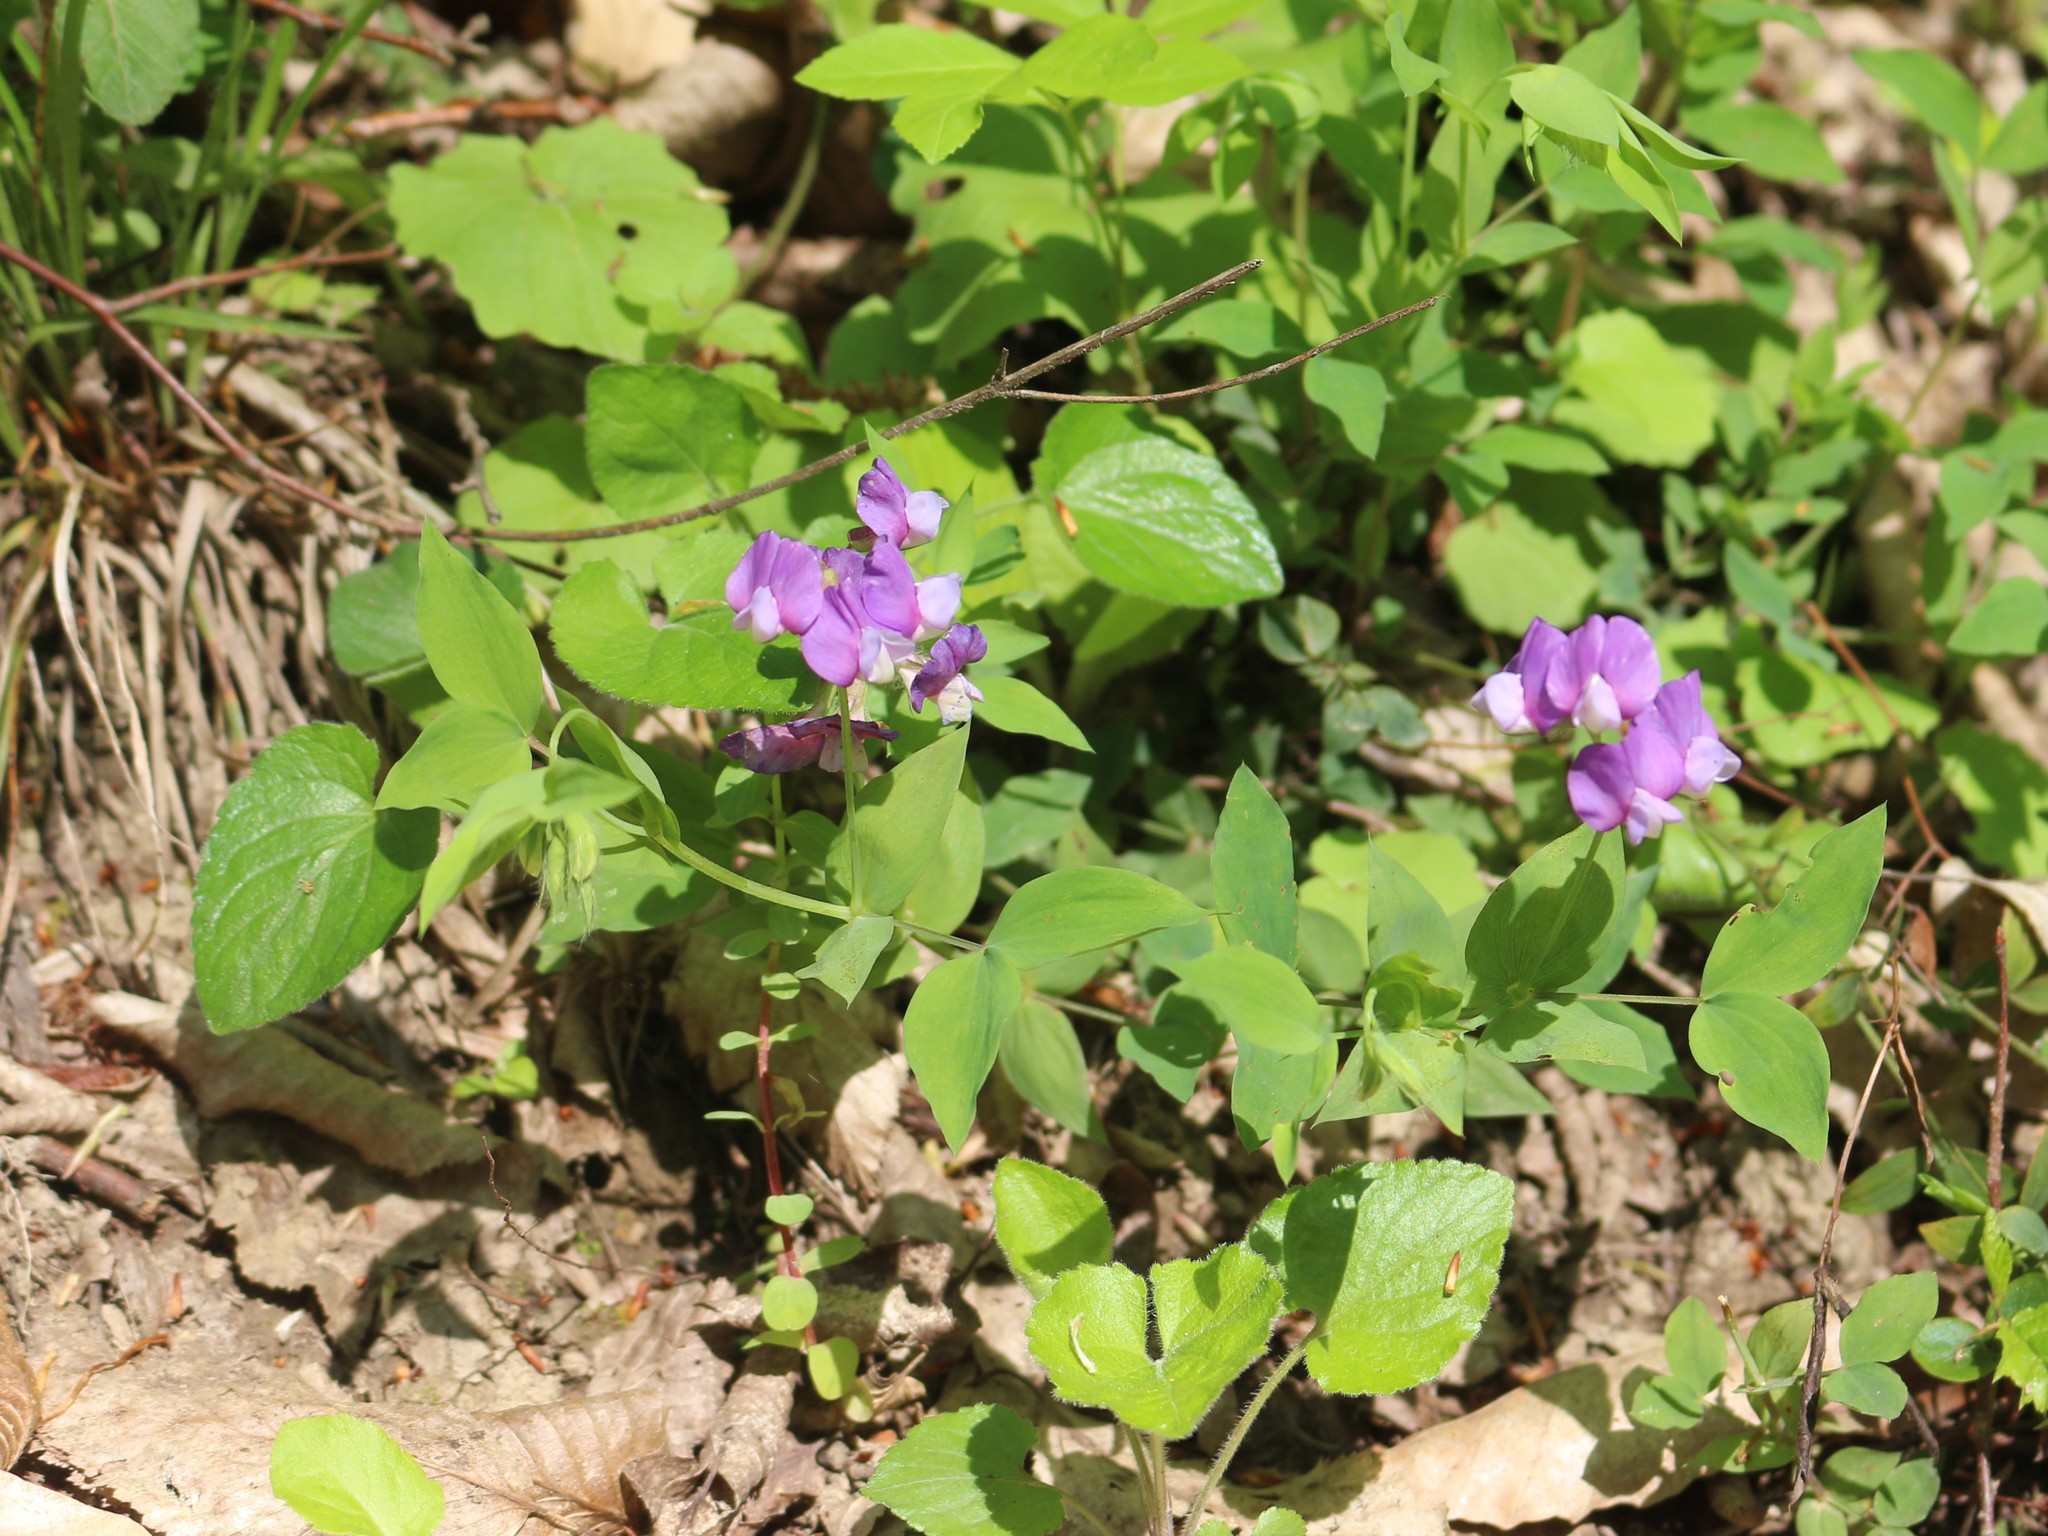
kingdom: Plantae
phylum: Tracheophyta
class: Magnoliopsida
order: Fabales
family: Fabaceae
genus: Lathyrus
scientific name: Lathyrus laxiflorus
